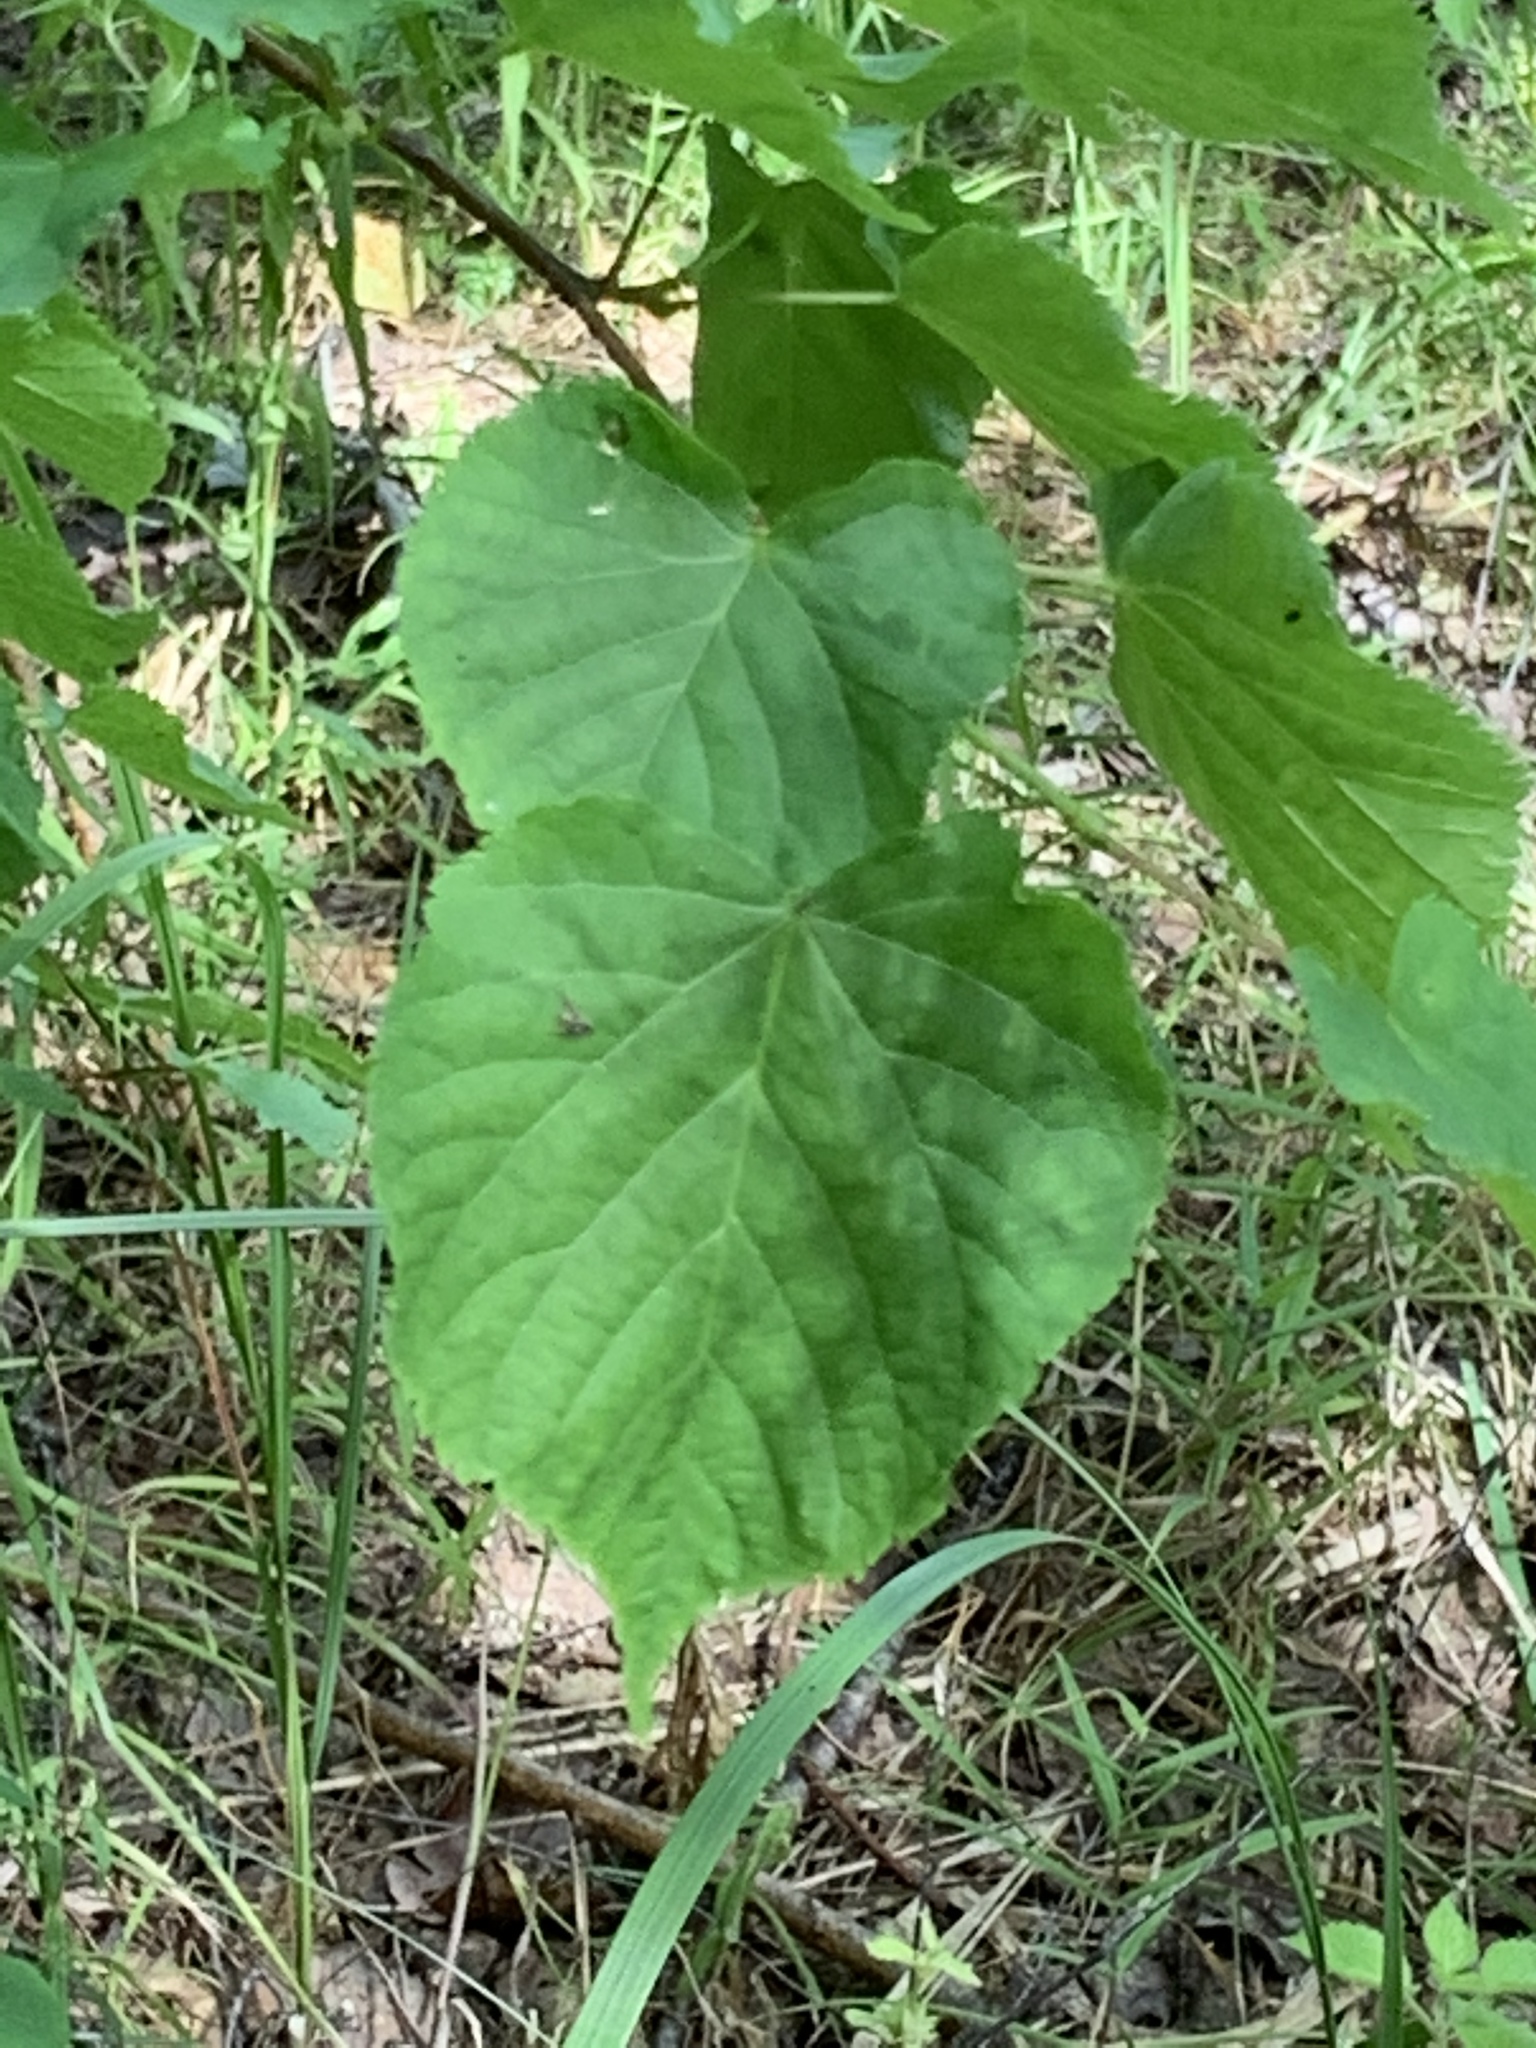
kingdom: Plantae
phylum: Tracheophyta
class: Magnoliopsida
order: Malvales
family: Malvaceae
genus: Tilia
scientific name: Tilia cordata
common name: Small-leaved lime
